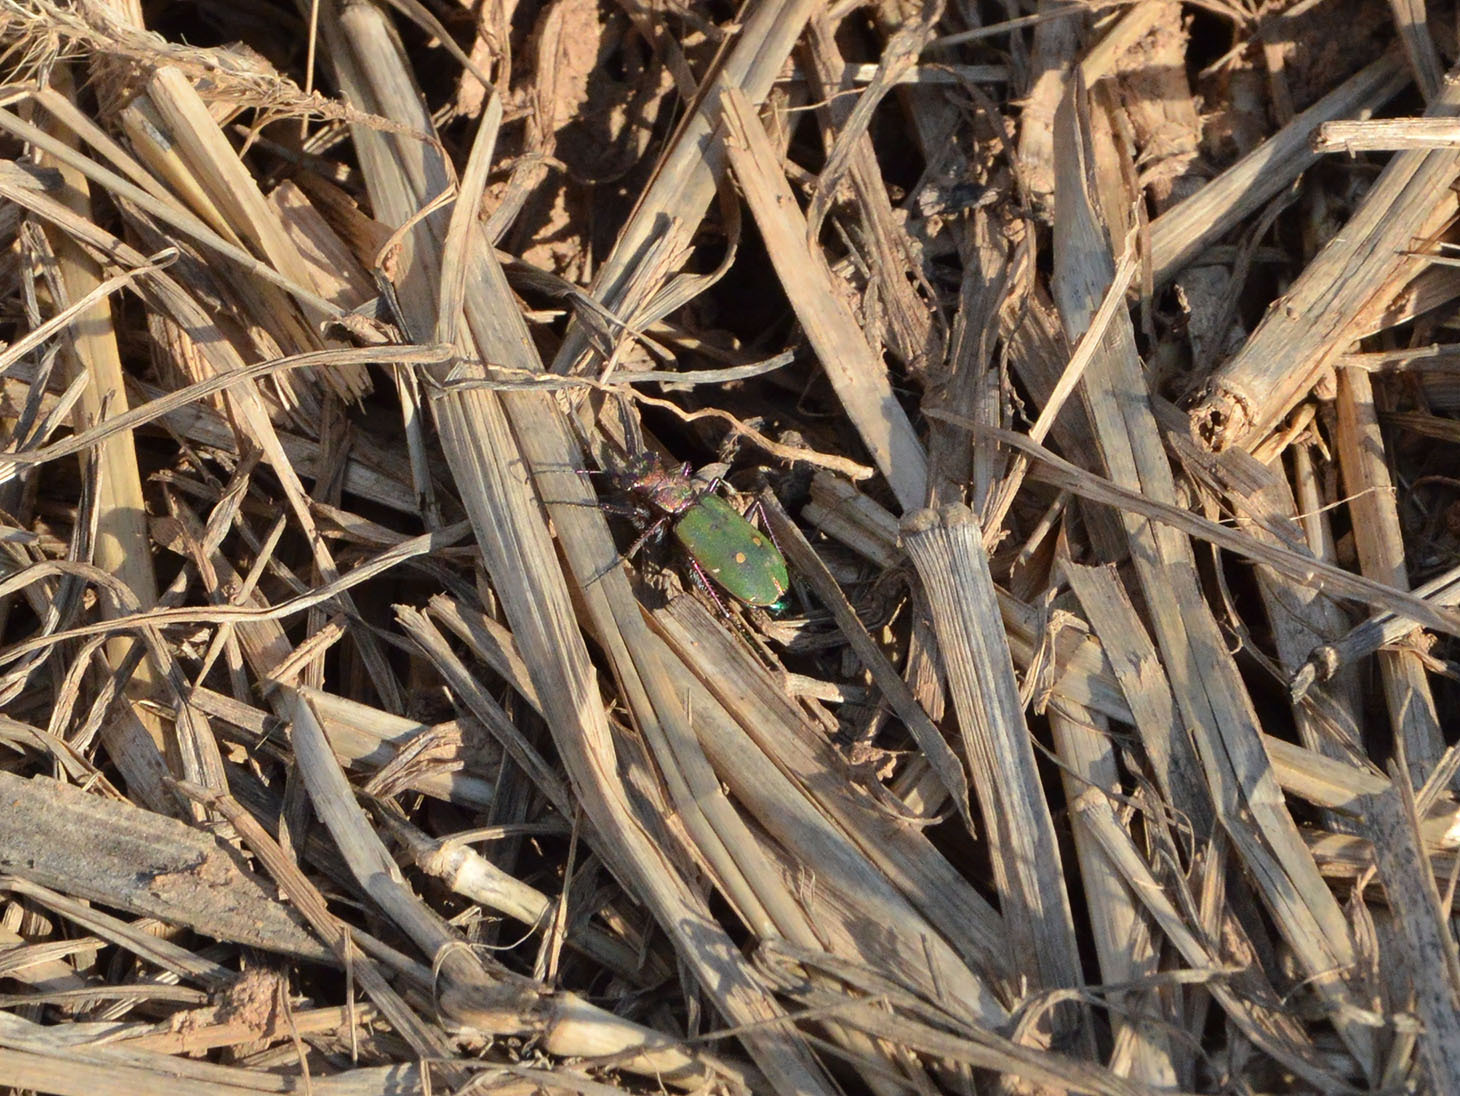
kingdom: Animalia
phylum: Arthropoda
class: Insecta
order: Coleoptera
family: Carabidae
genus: Cicindela
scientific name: Cicindela campestris
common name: Common tiger beetle
